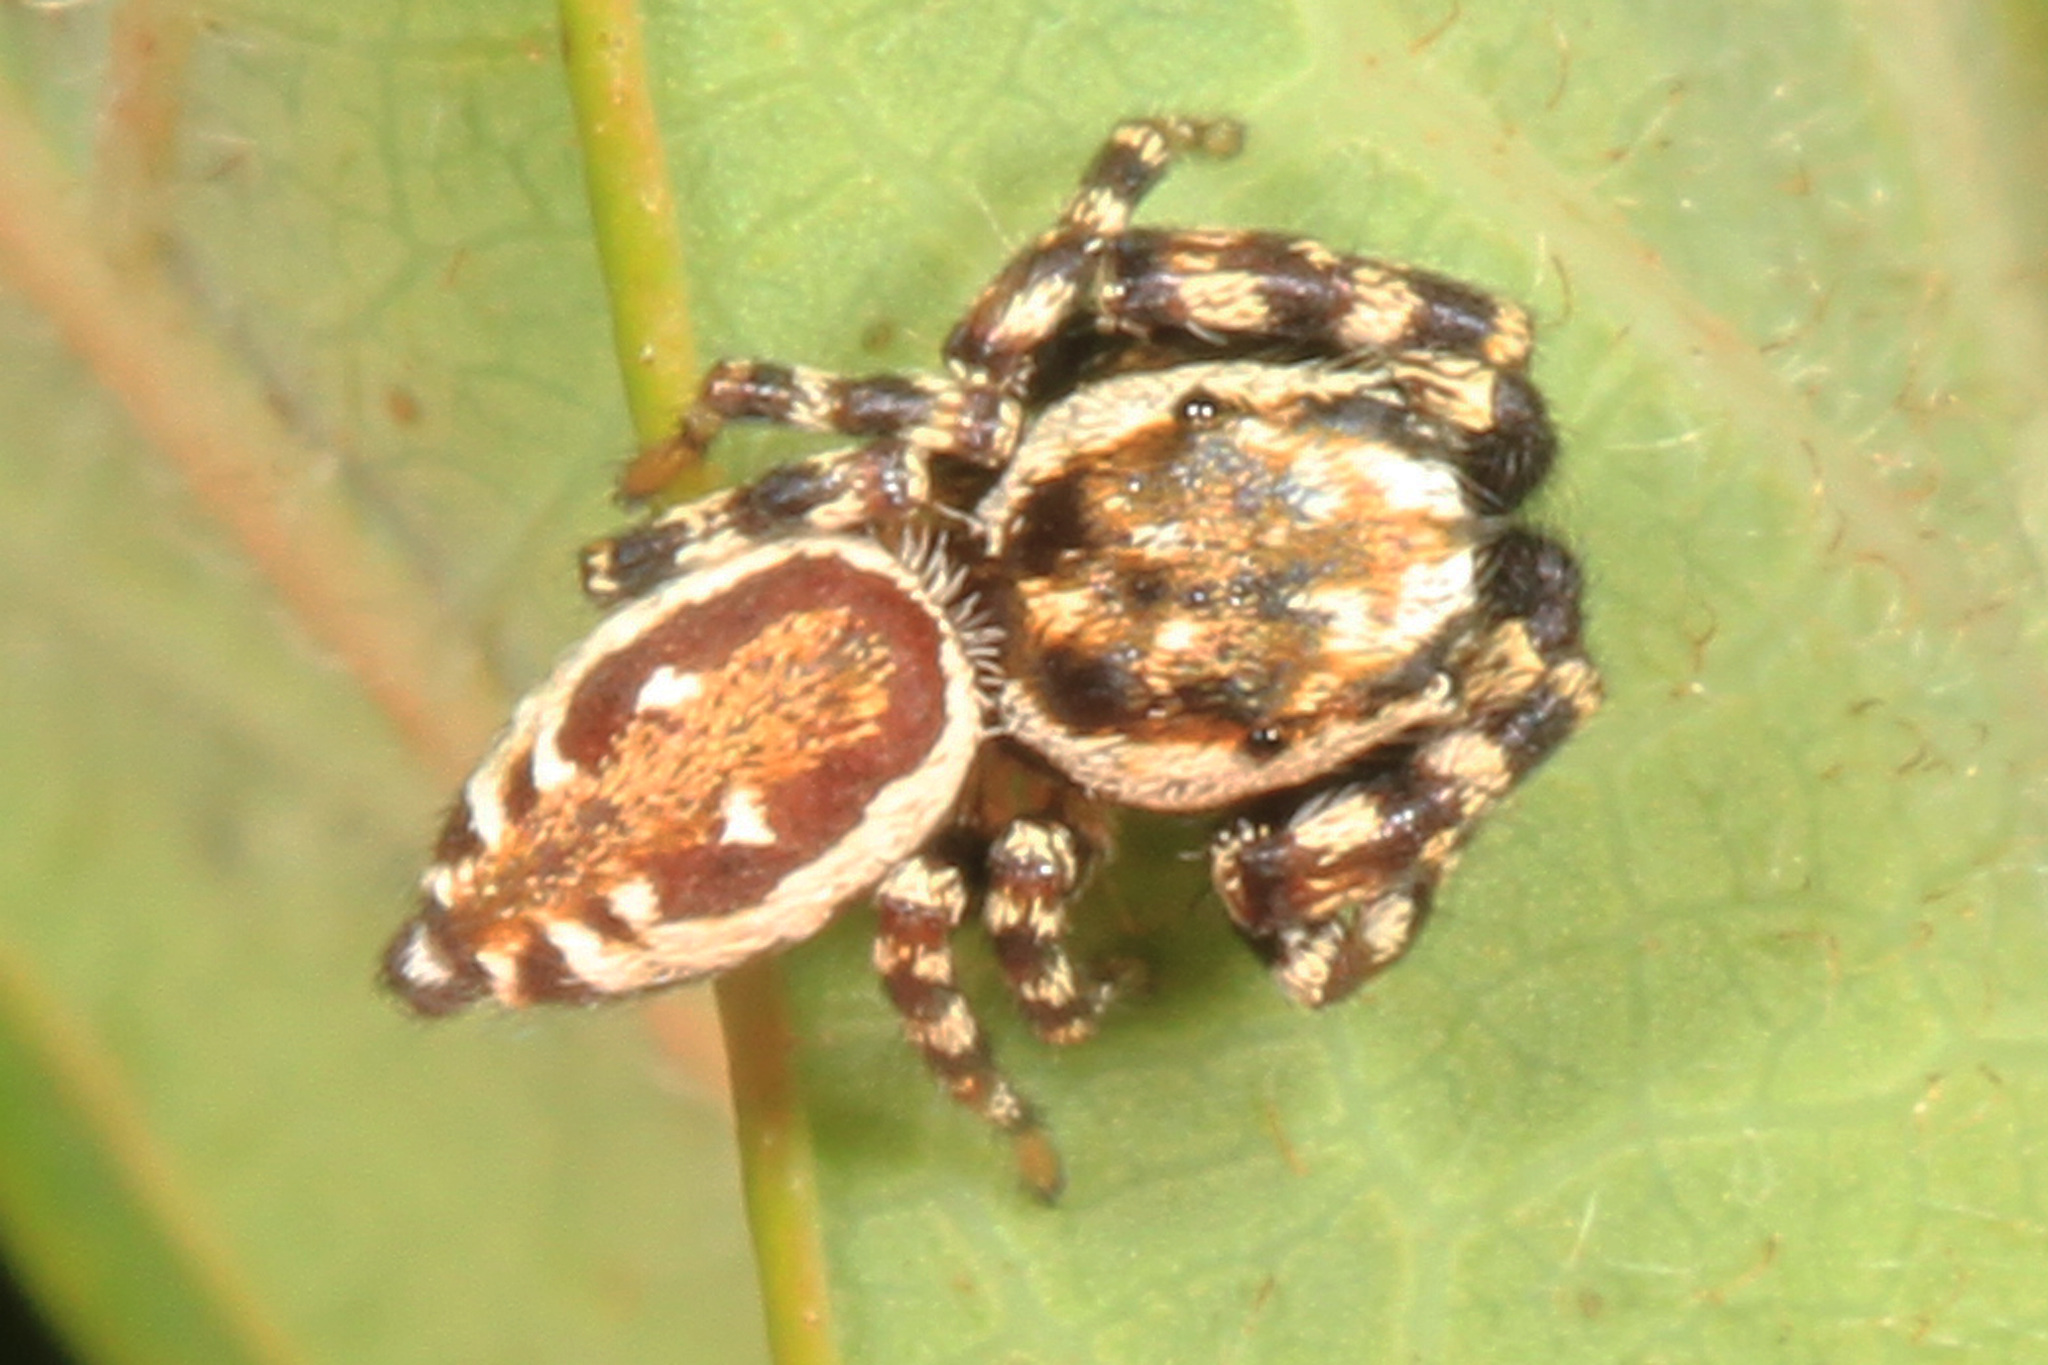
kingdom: Animalia
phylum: Arthropoda
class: Arachnida
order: Araneae
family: Salticidae
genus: Pelegrina
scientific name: Pelegrina galathea
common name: Jumping spiders
